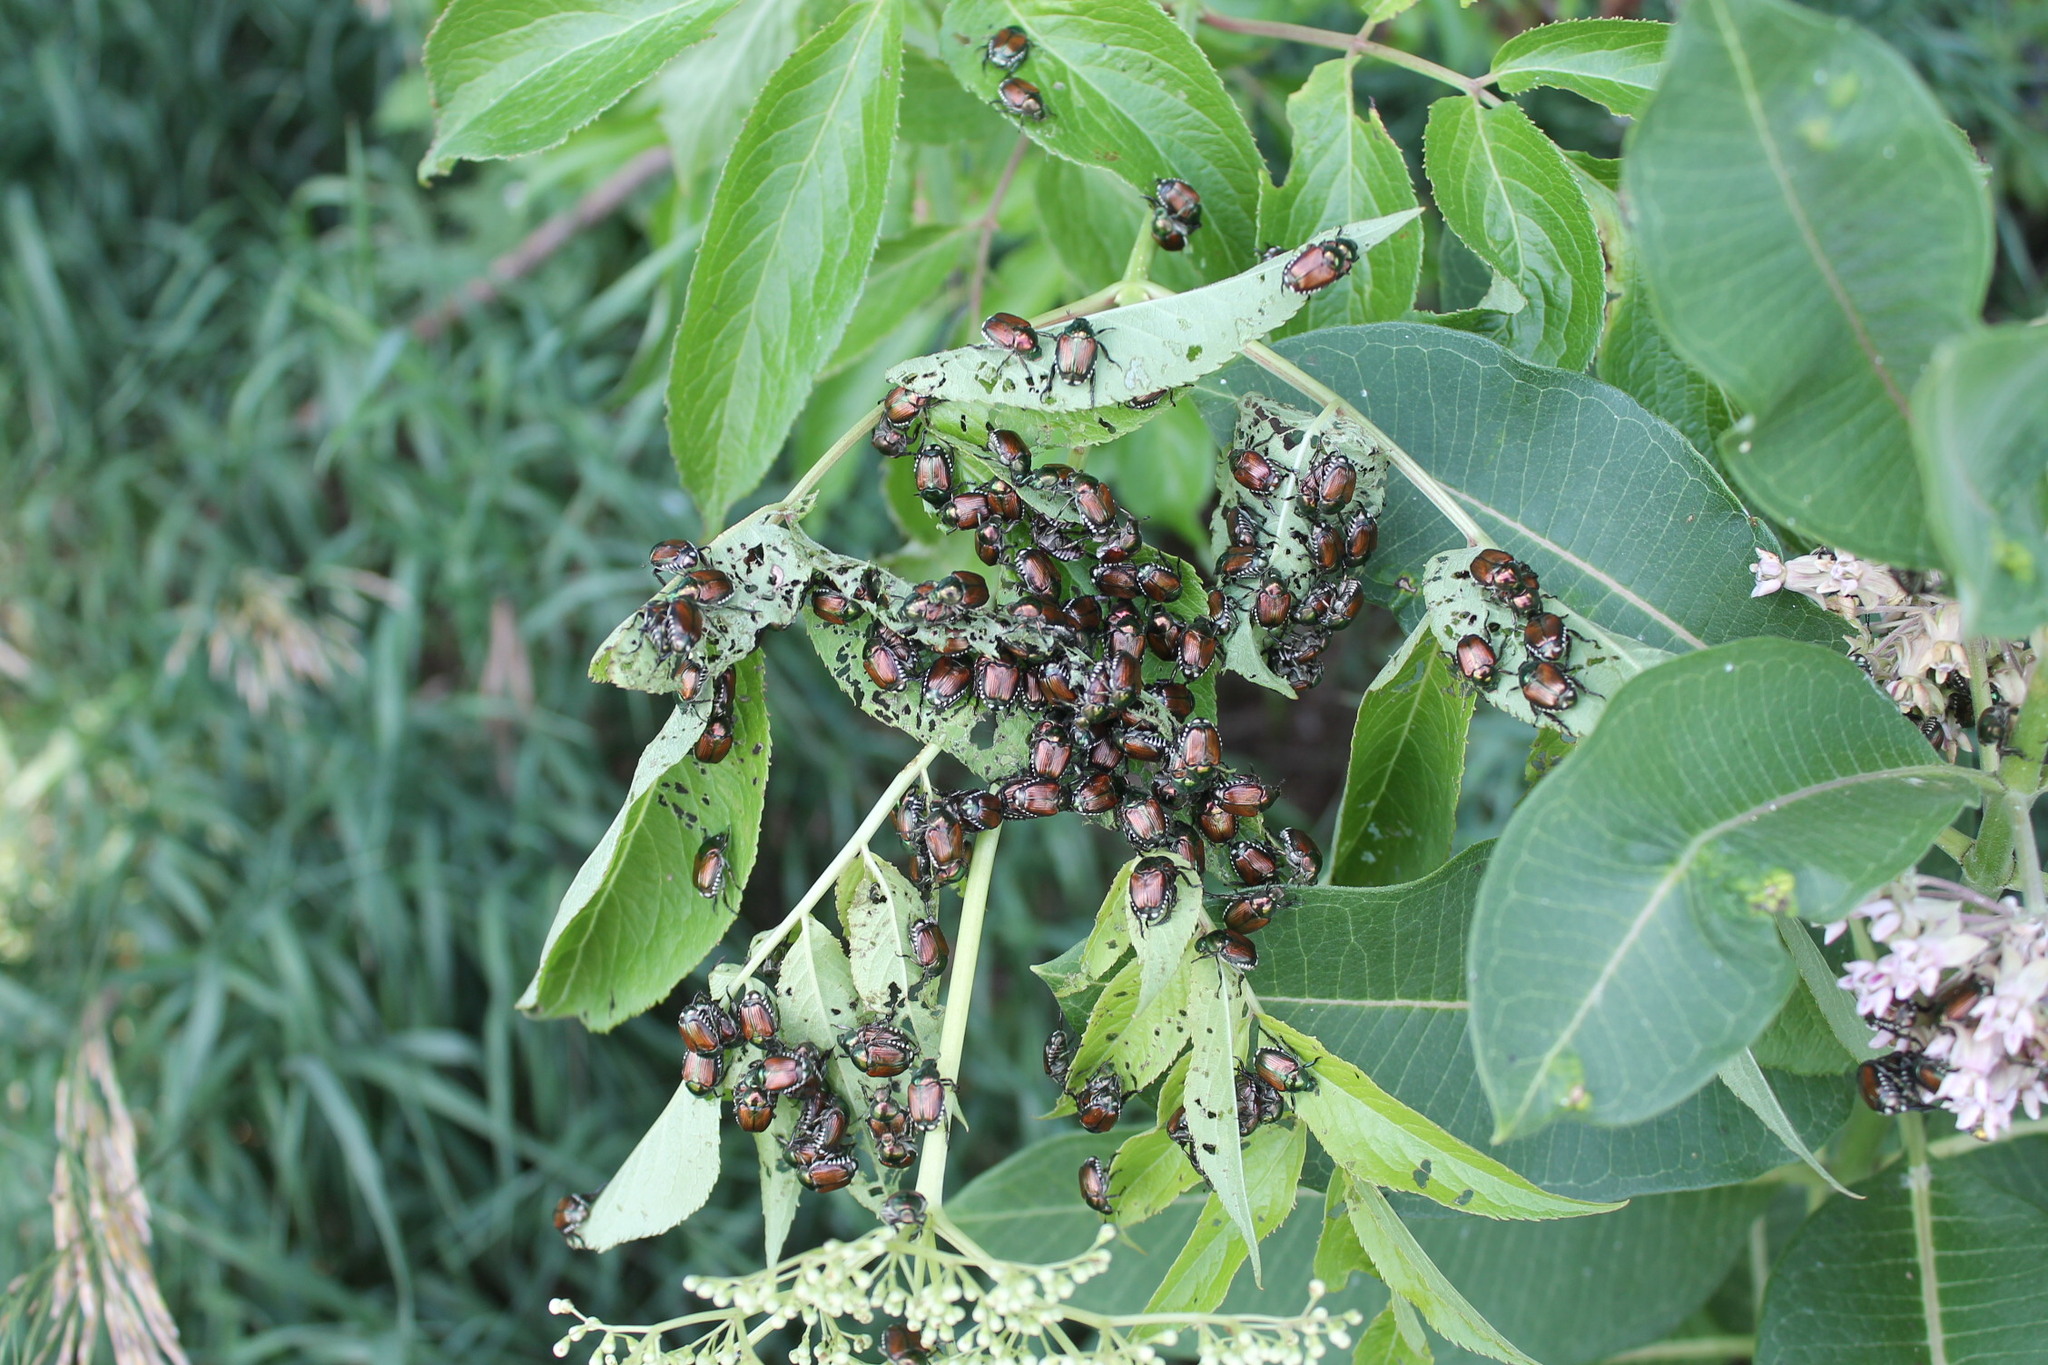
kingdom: Animalia
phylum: Arthropoda
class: Insecta
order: Coleoptera
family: Scarabaeidae
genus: Popillia
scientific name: Popillia japonica
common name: Japanese beetle
